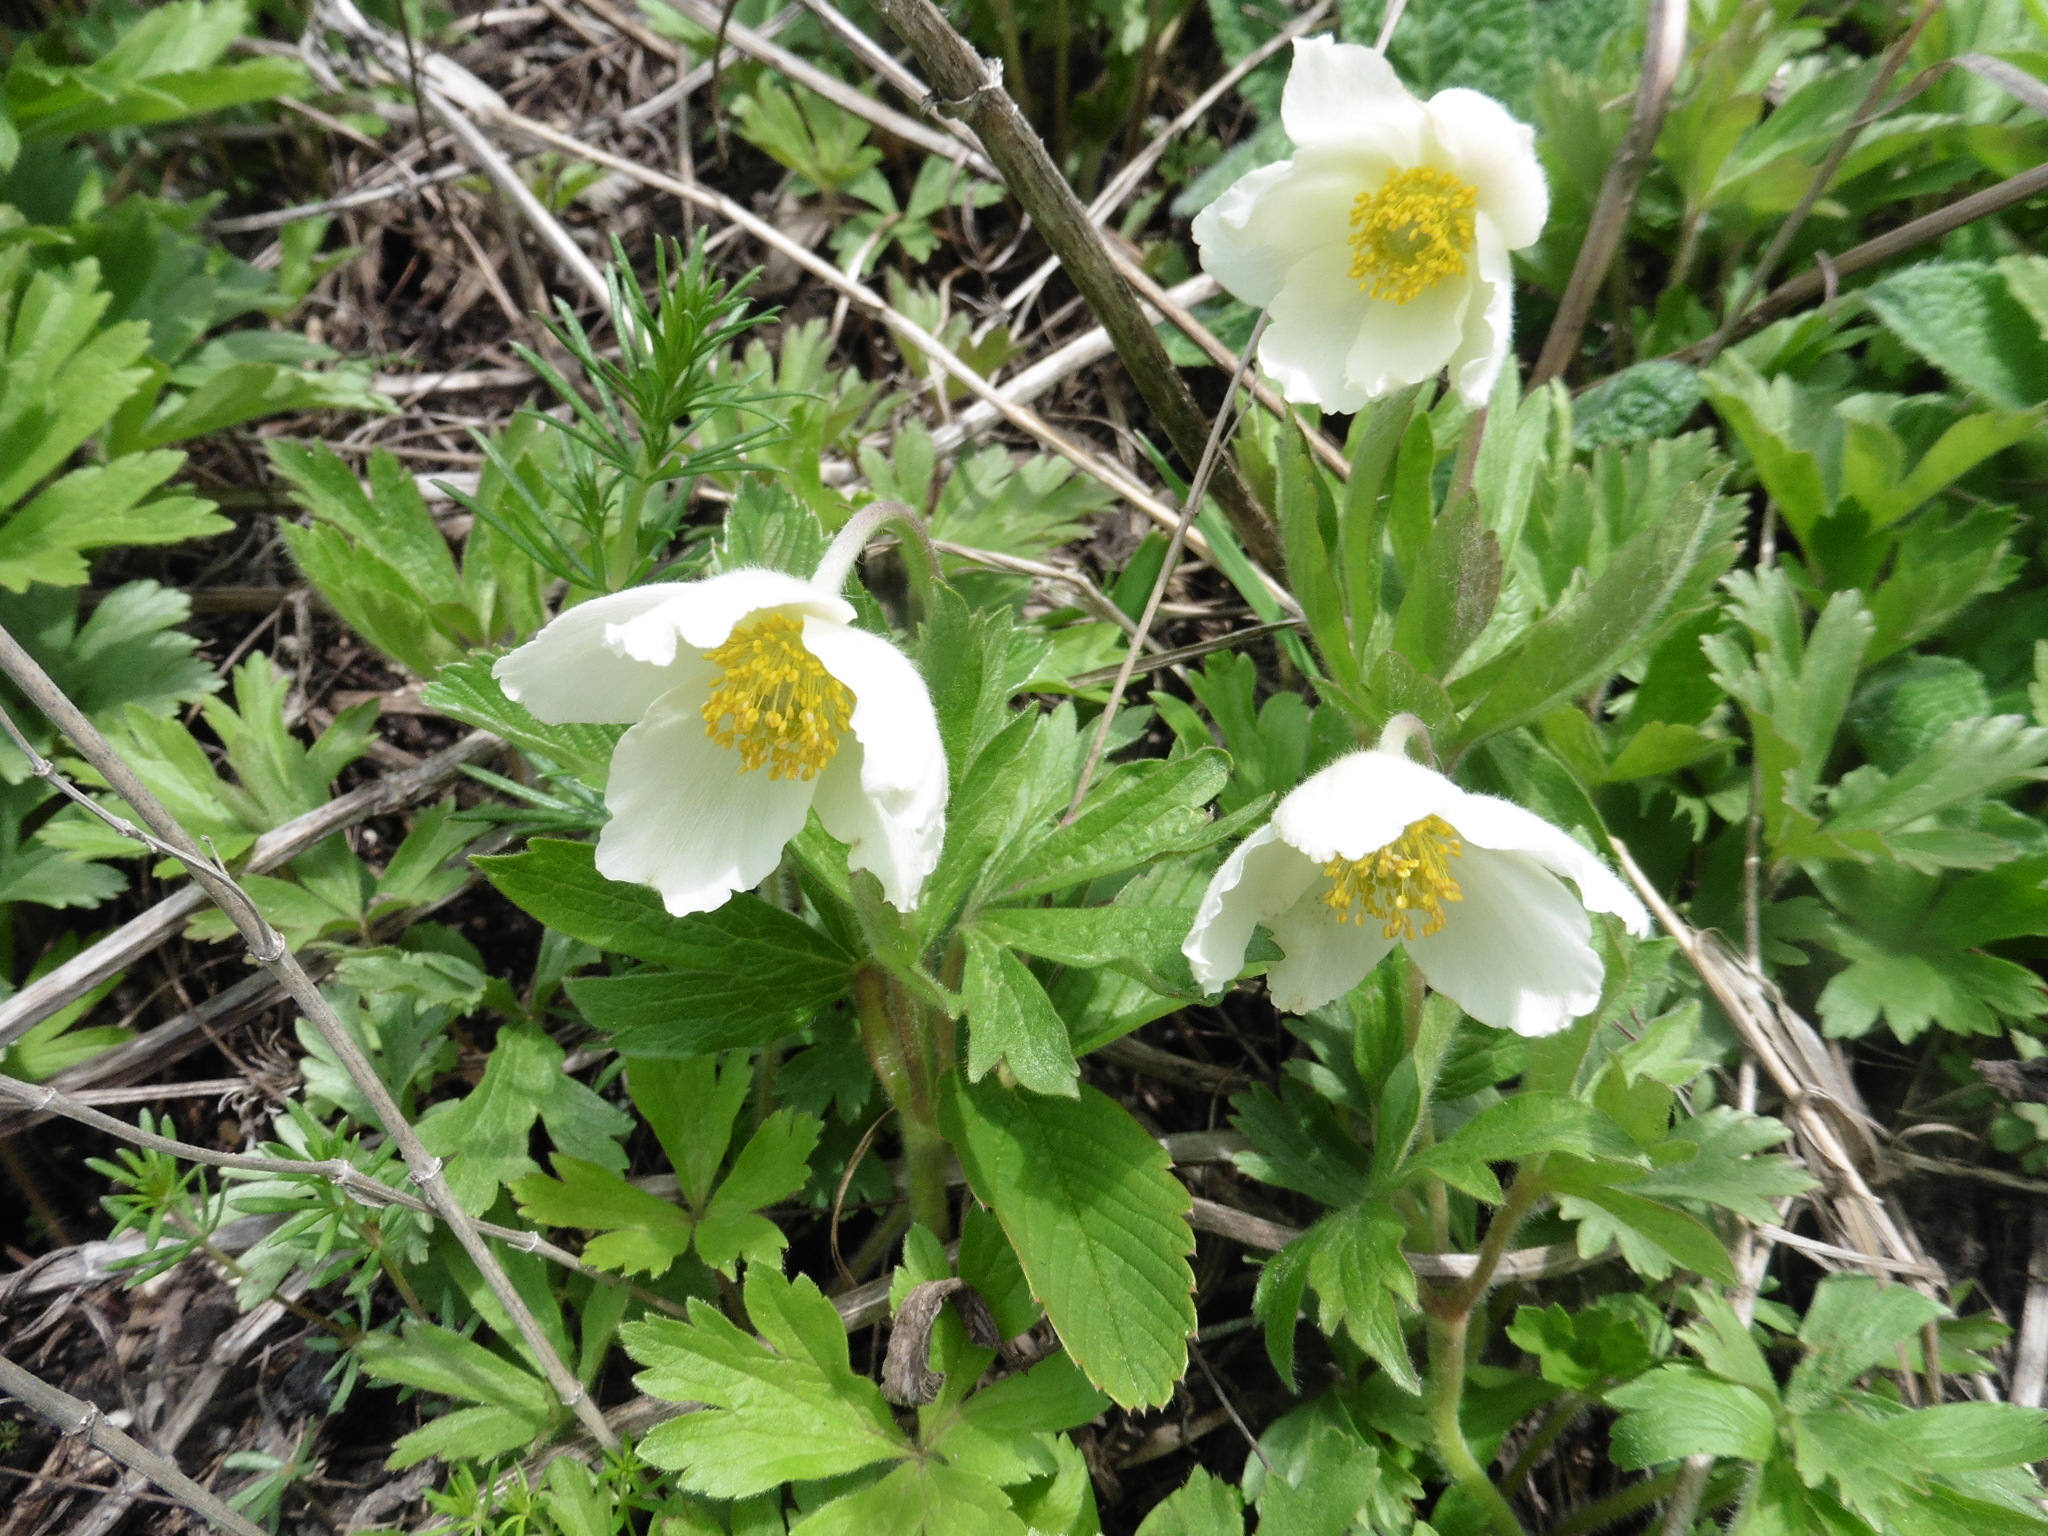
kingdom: Plantae
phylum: Tracheophyta
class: Magnoliopsida
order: Ranunculales
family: Ranunculaceae
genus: Anemone
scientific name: Anemone sylvestris
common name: Snowdrop anemone
